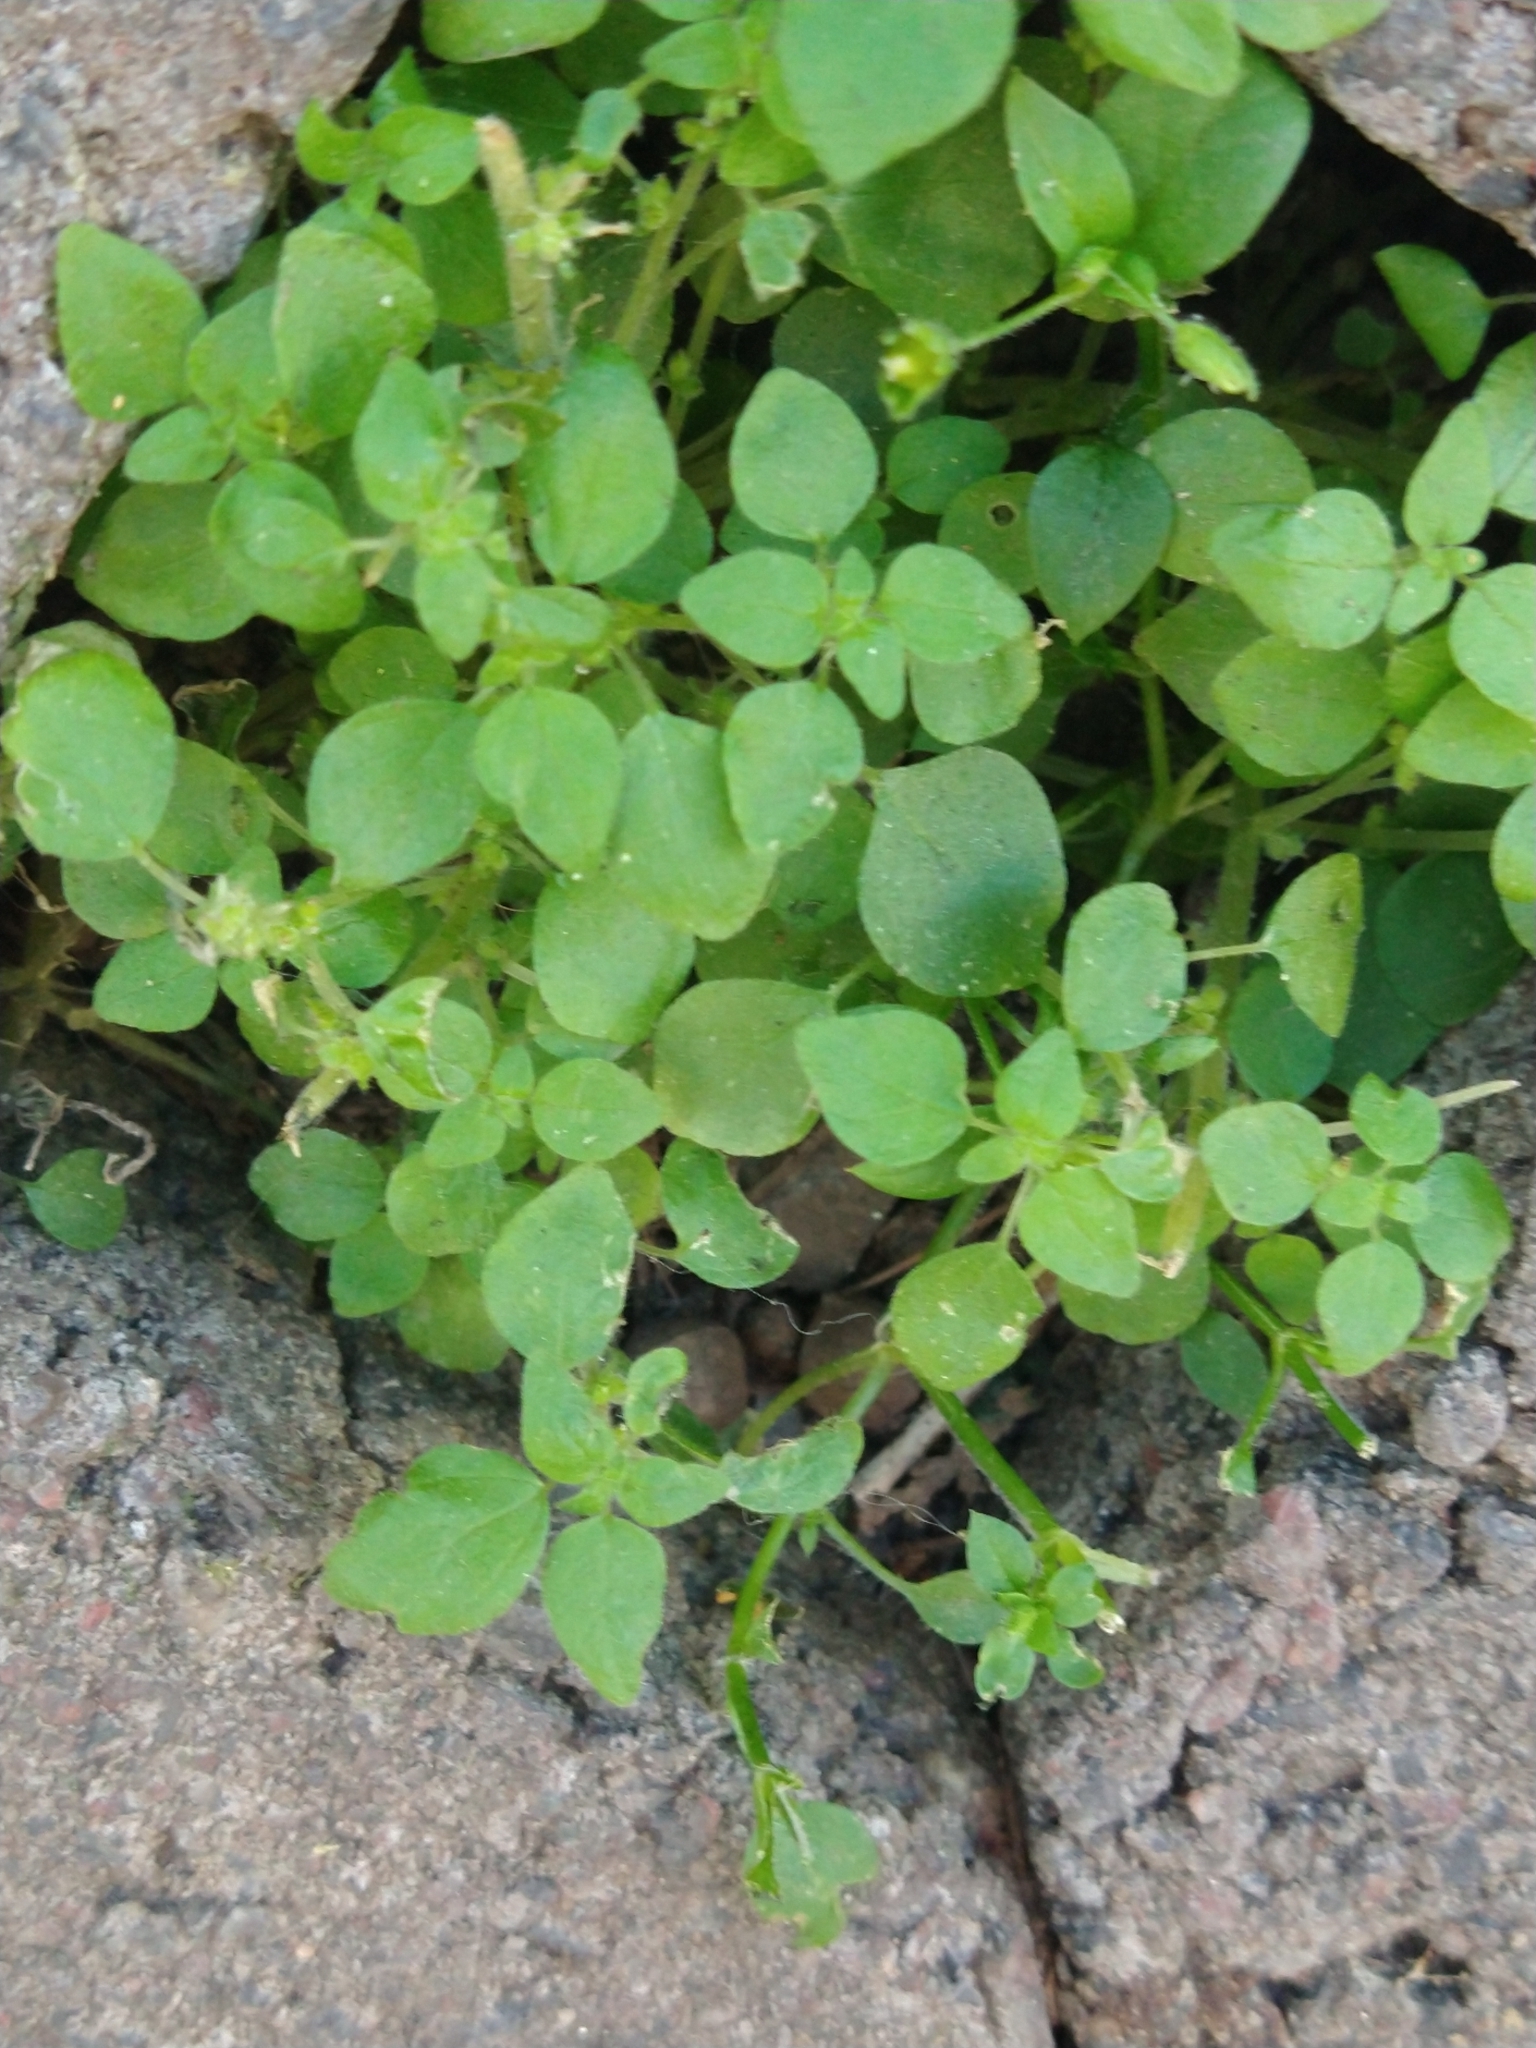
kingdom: Plantae
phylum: Tracheophyta
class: Magnoliopsida
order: Caryophyllales
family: Caryophyllaceae
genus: Stellaria
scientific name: Stellaria
